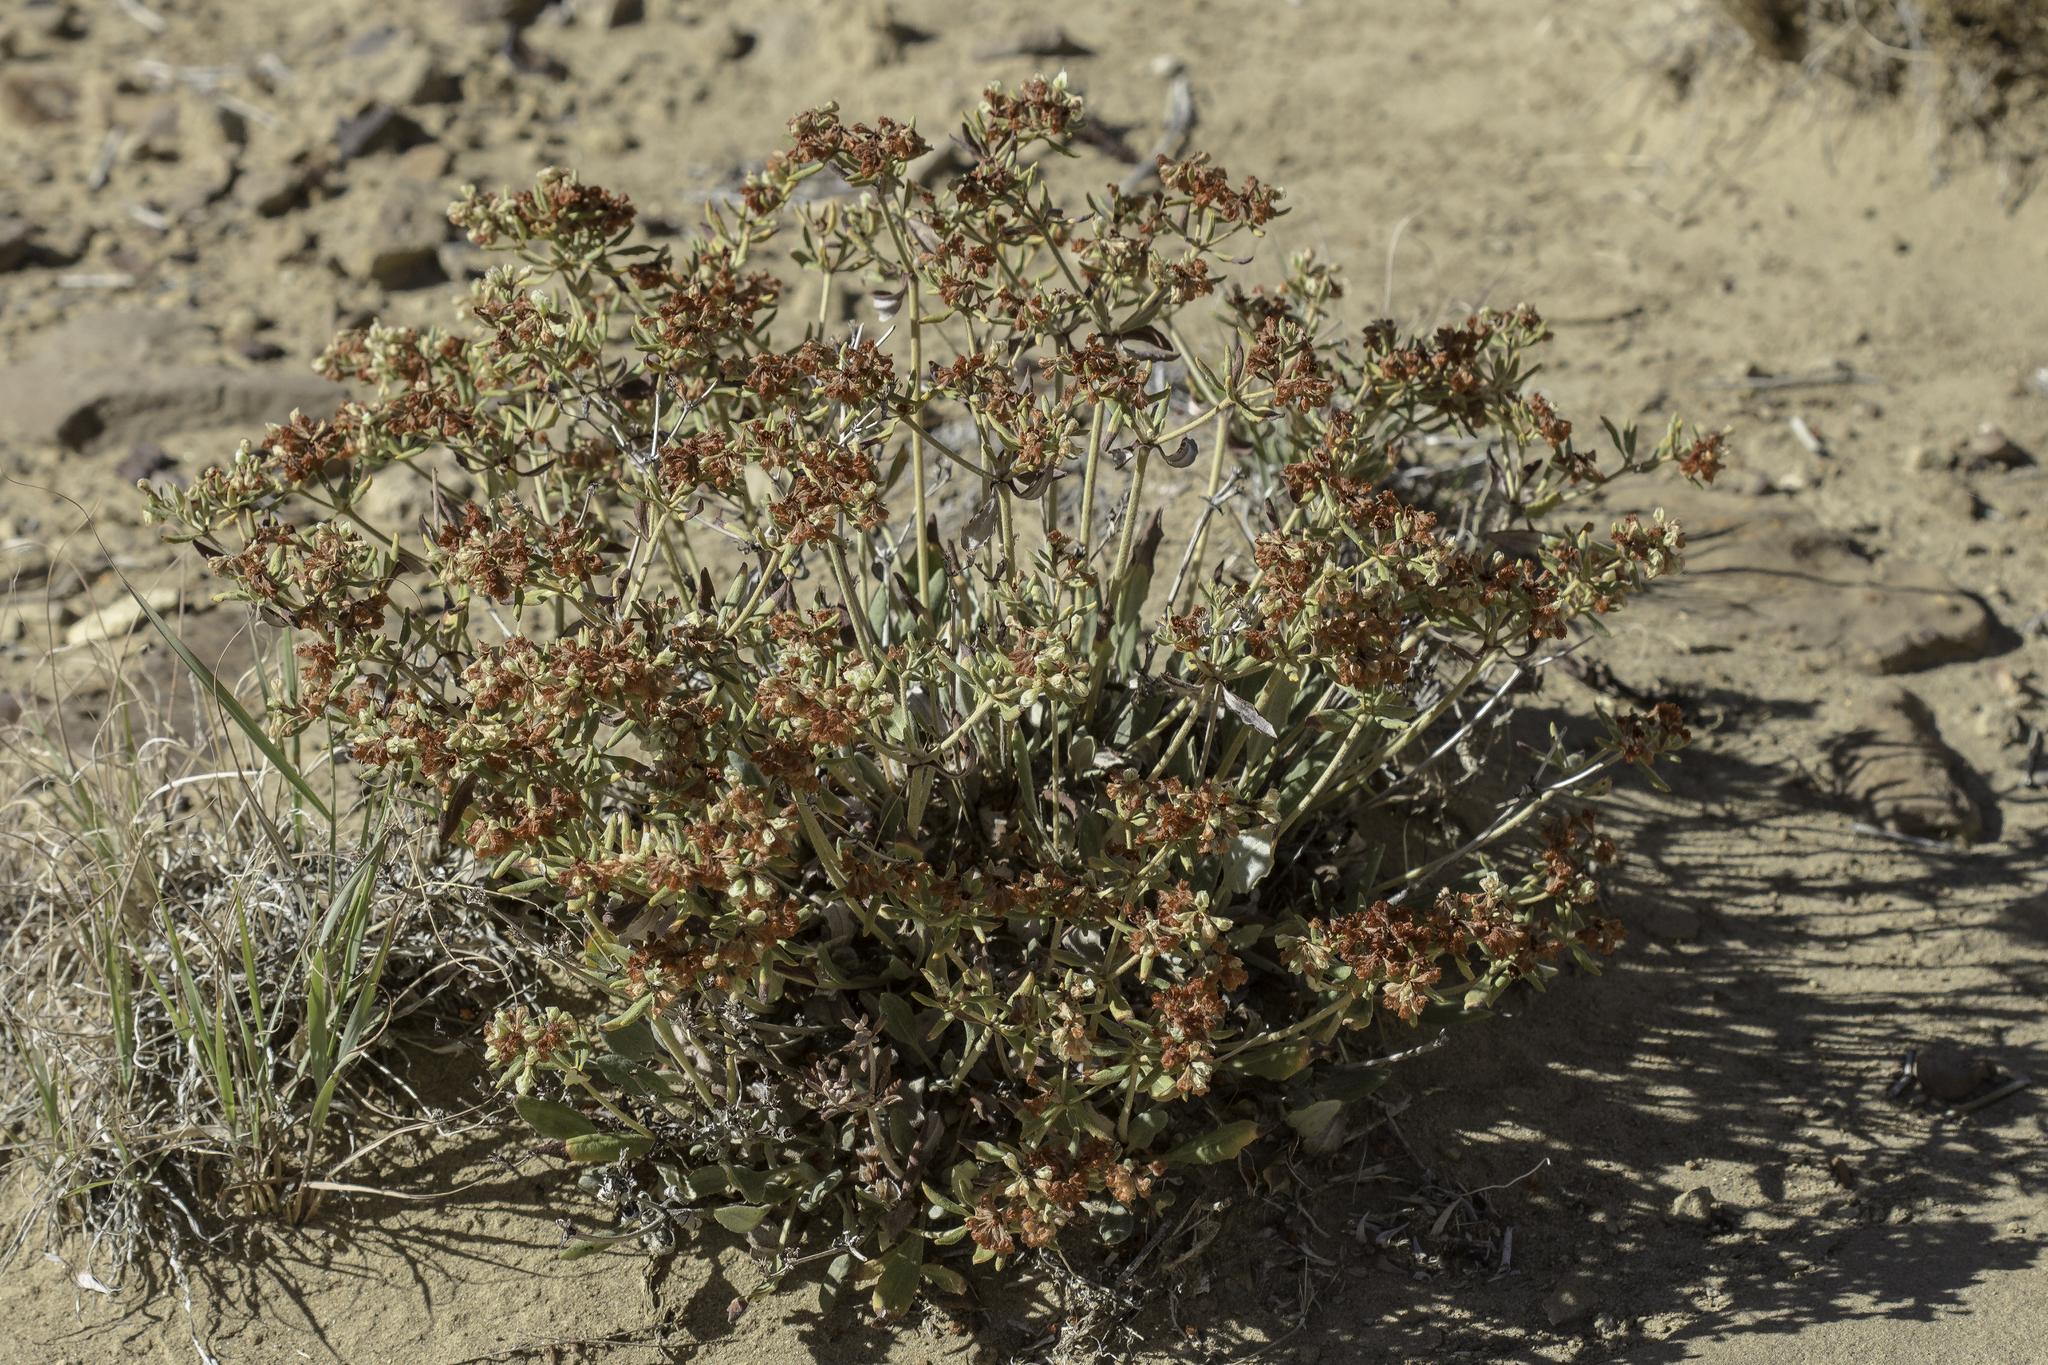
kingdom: Plantae
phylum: Tracheophyta
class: Magnoliopsida
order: Caryophyllales
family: Polygonaceae
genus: Eriogonum
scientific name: Eriogonum jamesii
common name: Antelope-sage
